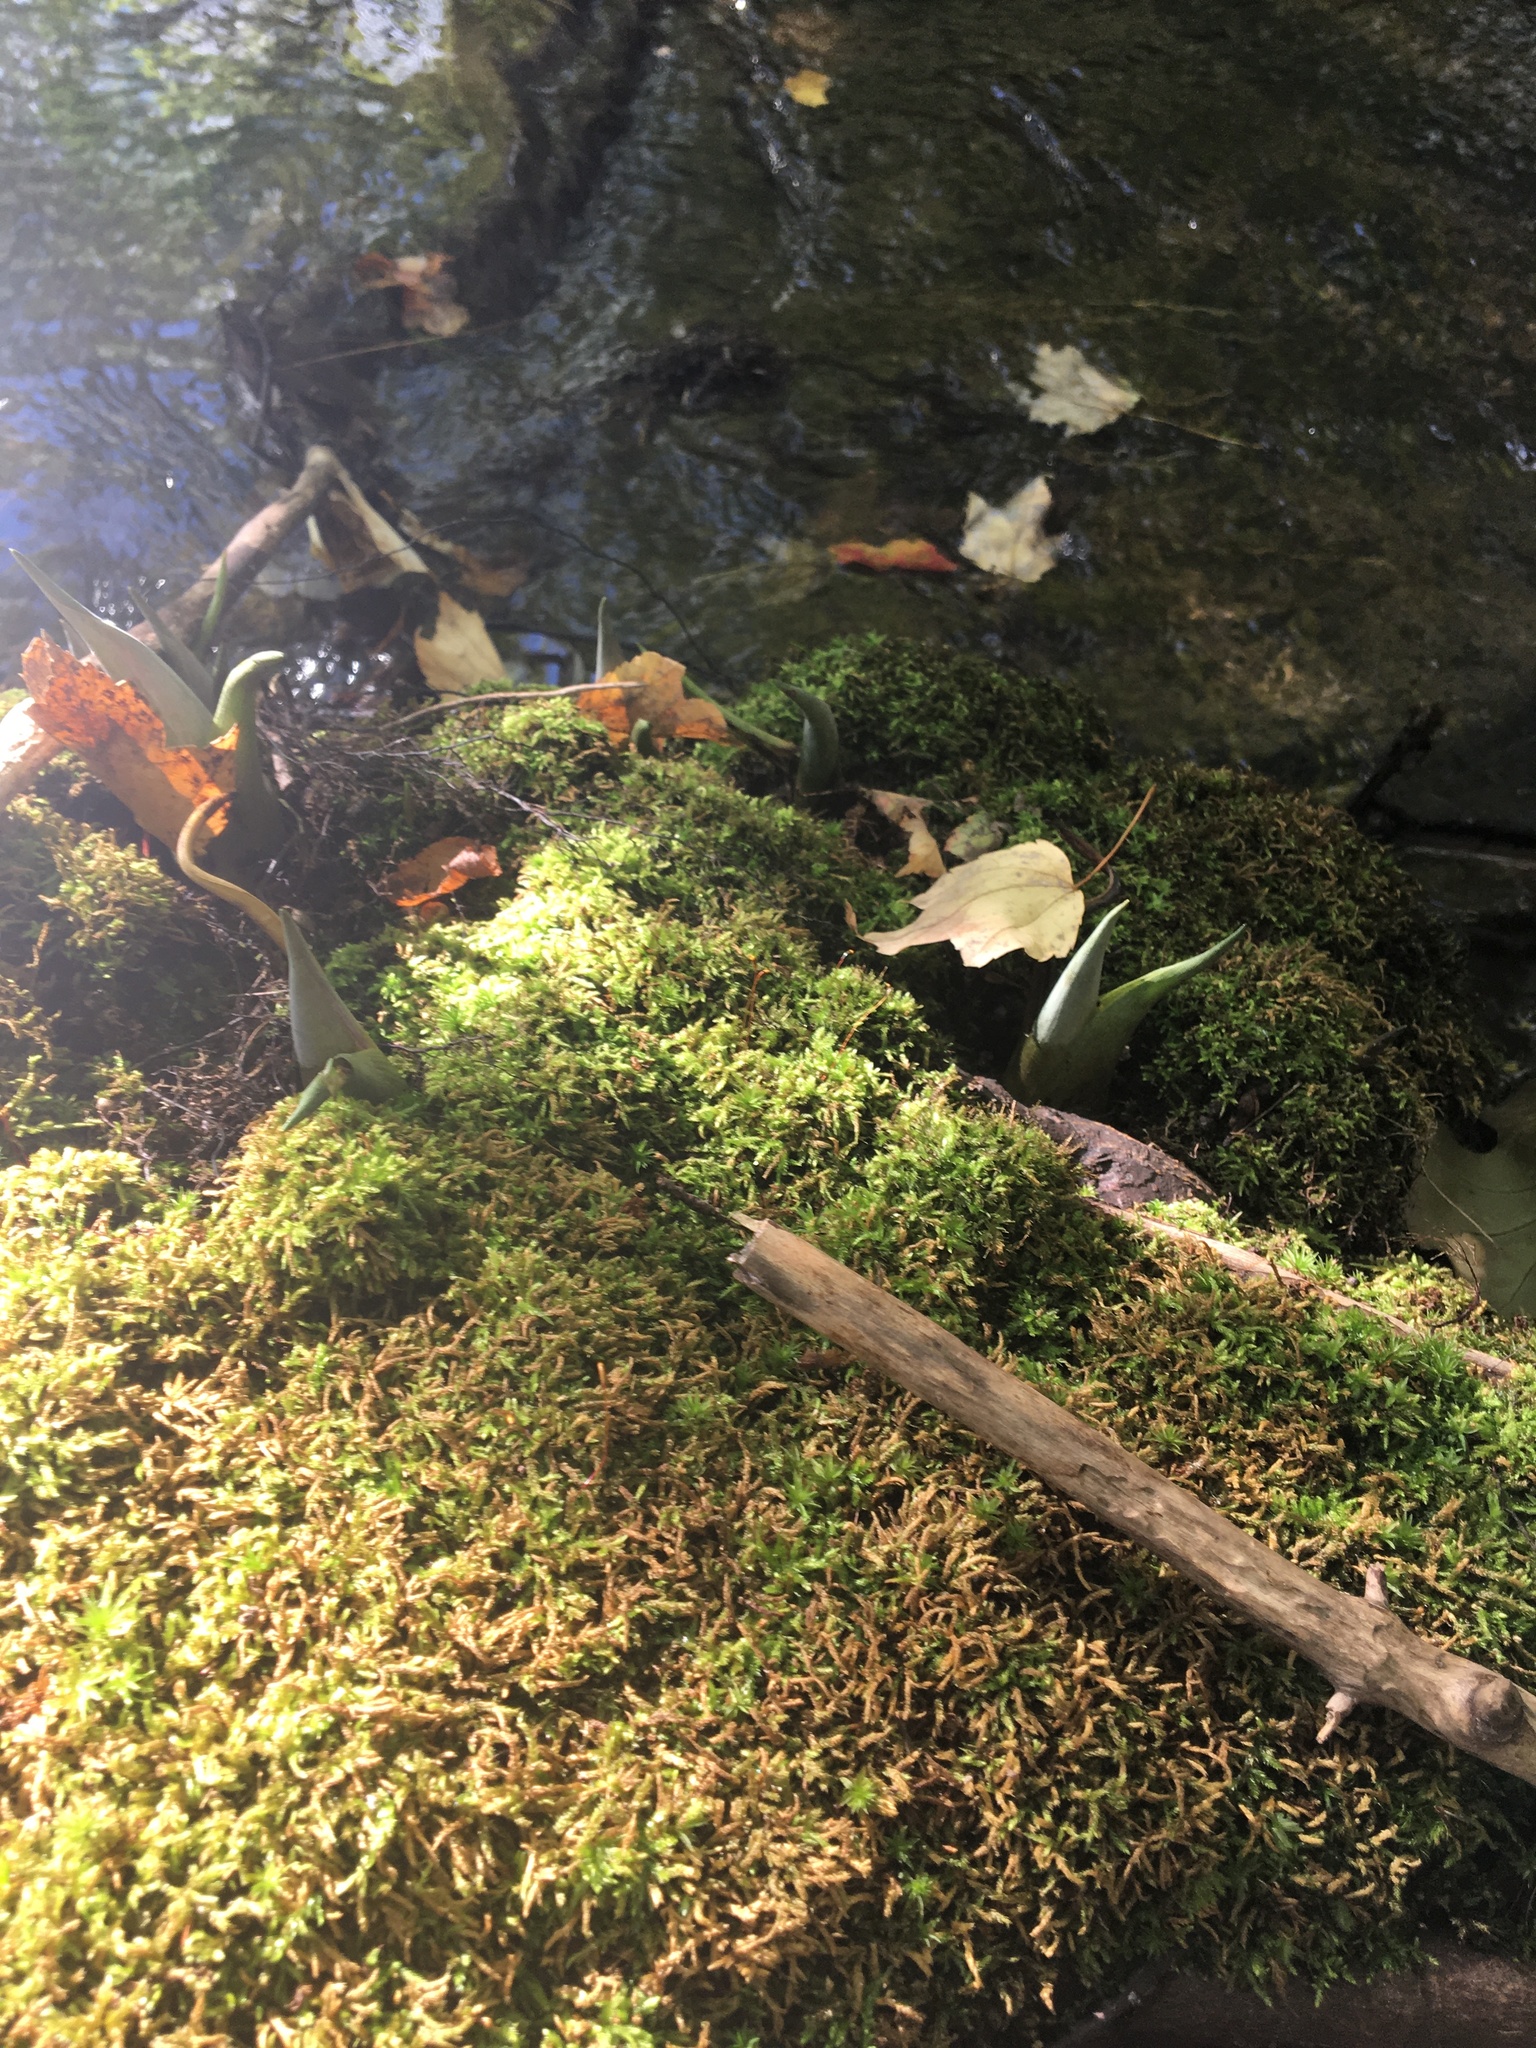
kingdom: Plantae
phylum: Tracheophyta
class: Liliopsida
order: Alismatales
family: Araceae
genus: Symplocarpus
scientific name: Symplocarpus foetidus
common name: Eastern skunk cabbage
